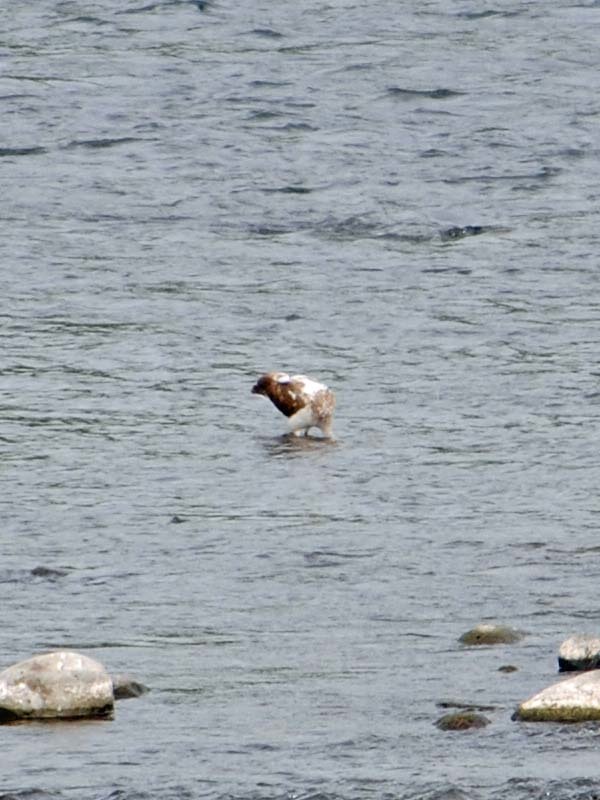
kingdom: Animalia
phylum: Chordata
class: Aves
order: Pelecaniformes
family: Threskiornithidae
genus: Eudocimus
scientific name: Eudocimus albus
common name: White ibis
